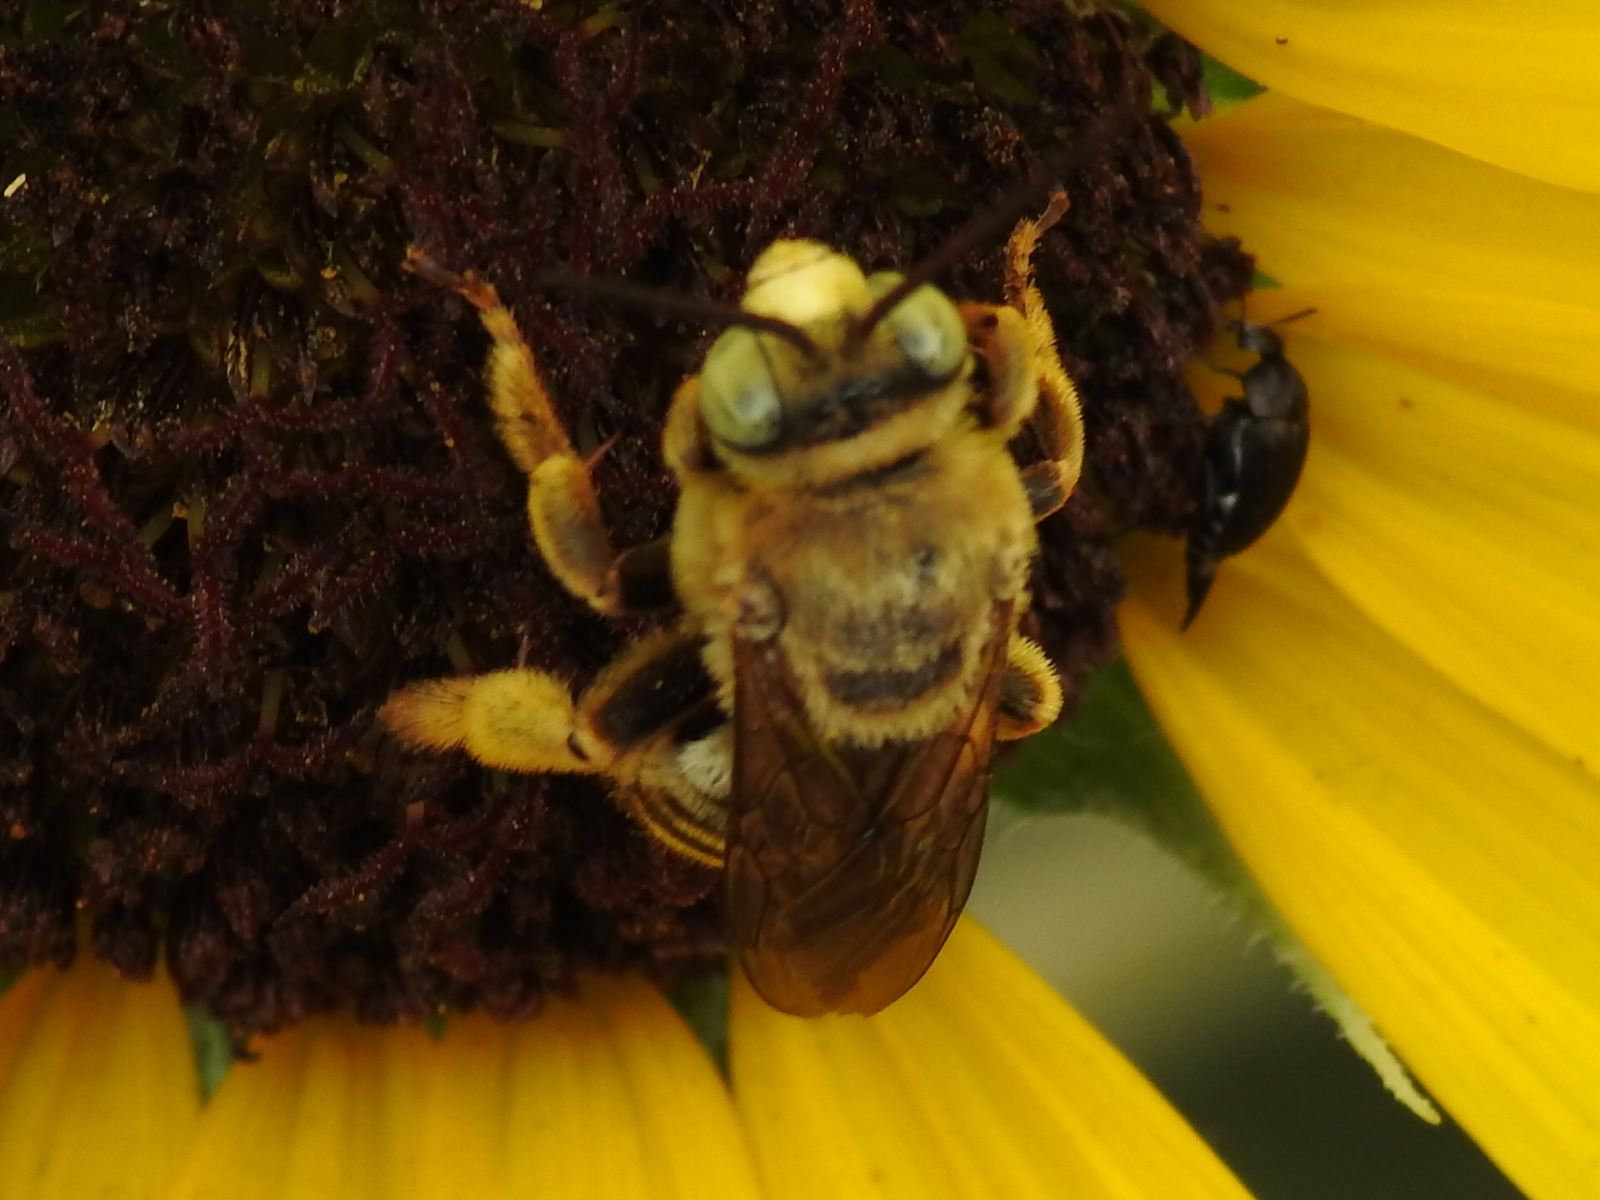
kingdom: Animalia
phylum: Arthropoda
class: Insecta
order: Hymenoptera
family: Apidae
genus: Svastra
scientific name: Svastra obliqua
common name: Oblique longhorn
